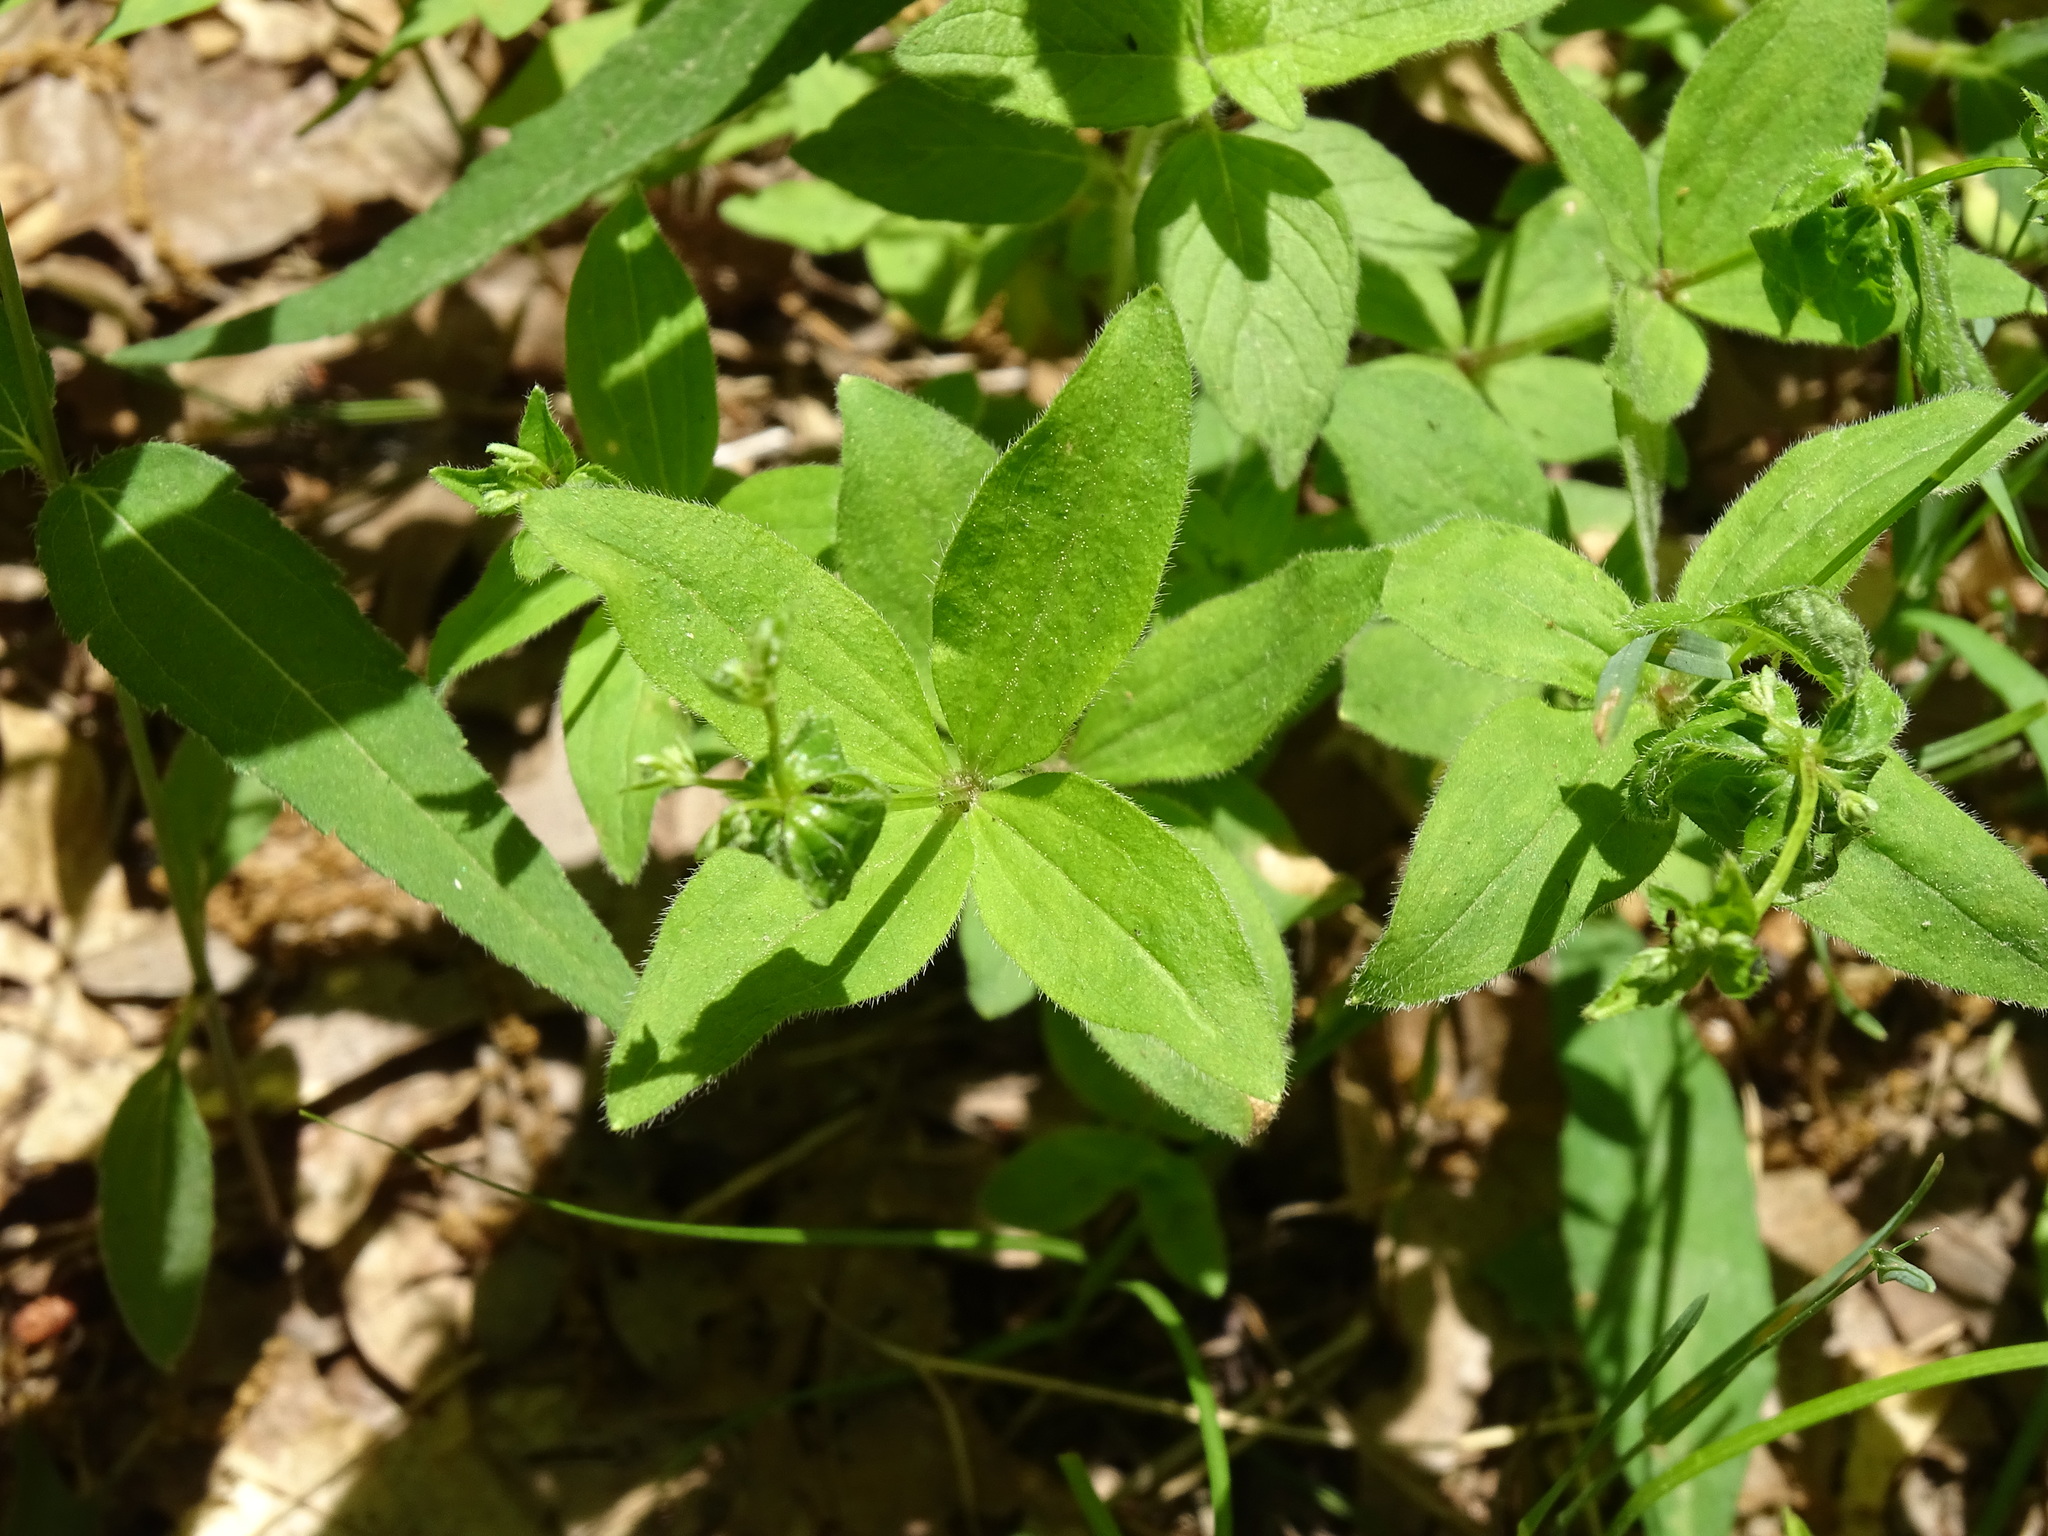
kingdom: Plantae
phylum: Tracheophyta
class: Magnoliopsida
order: Gentianales
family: Rubiaceae
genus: Galium
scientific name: Galium circaezans
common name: Forest bedstraw
